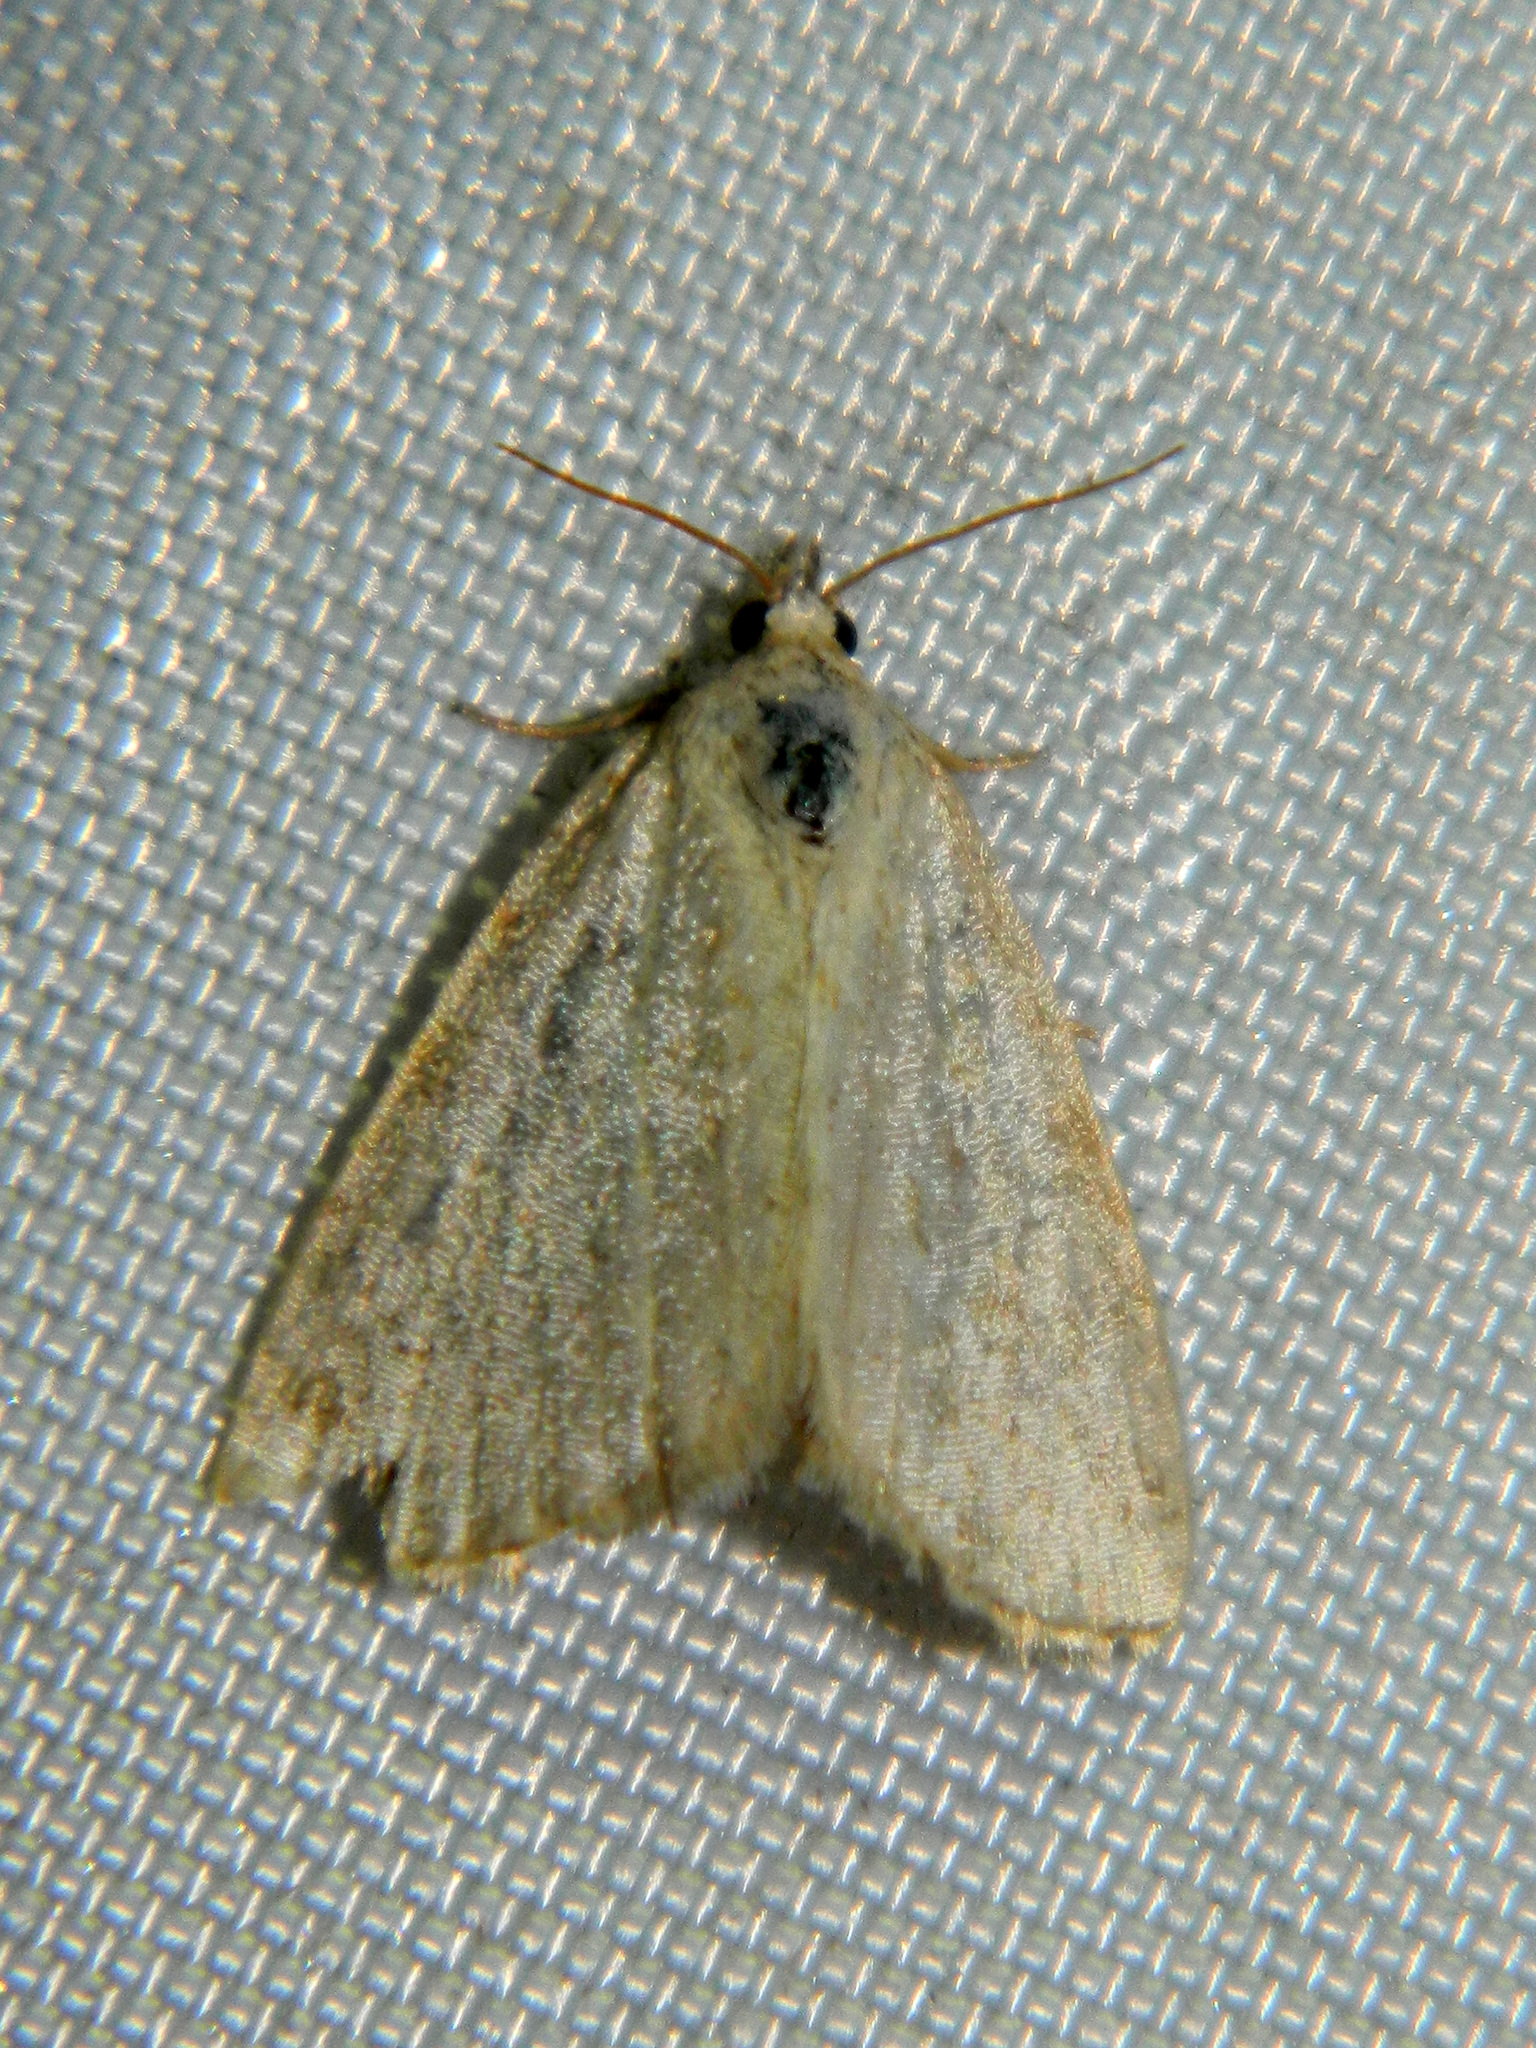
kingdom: Animalia
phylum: Arthropoda
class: Insecta
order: Lepidoptera
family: Noctuidae
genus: Protodeltote
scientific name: Protodeltote albidula
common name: Pale glyph
